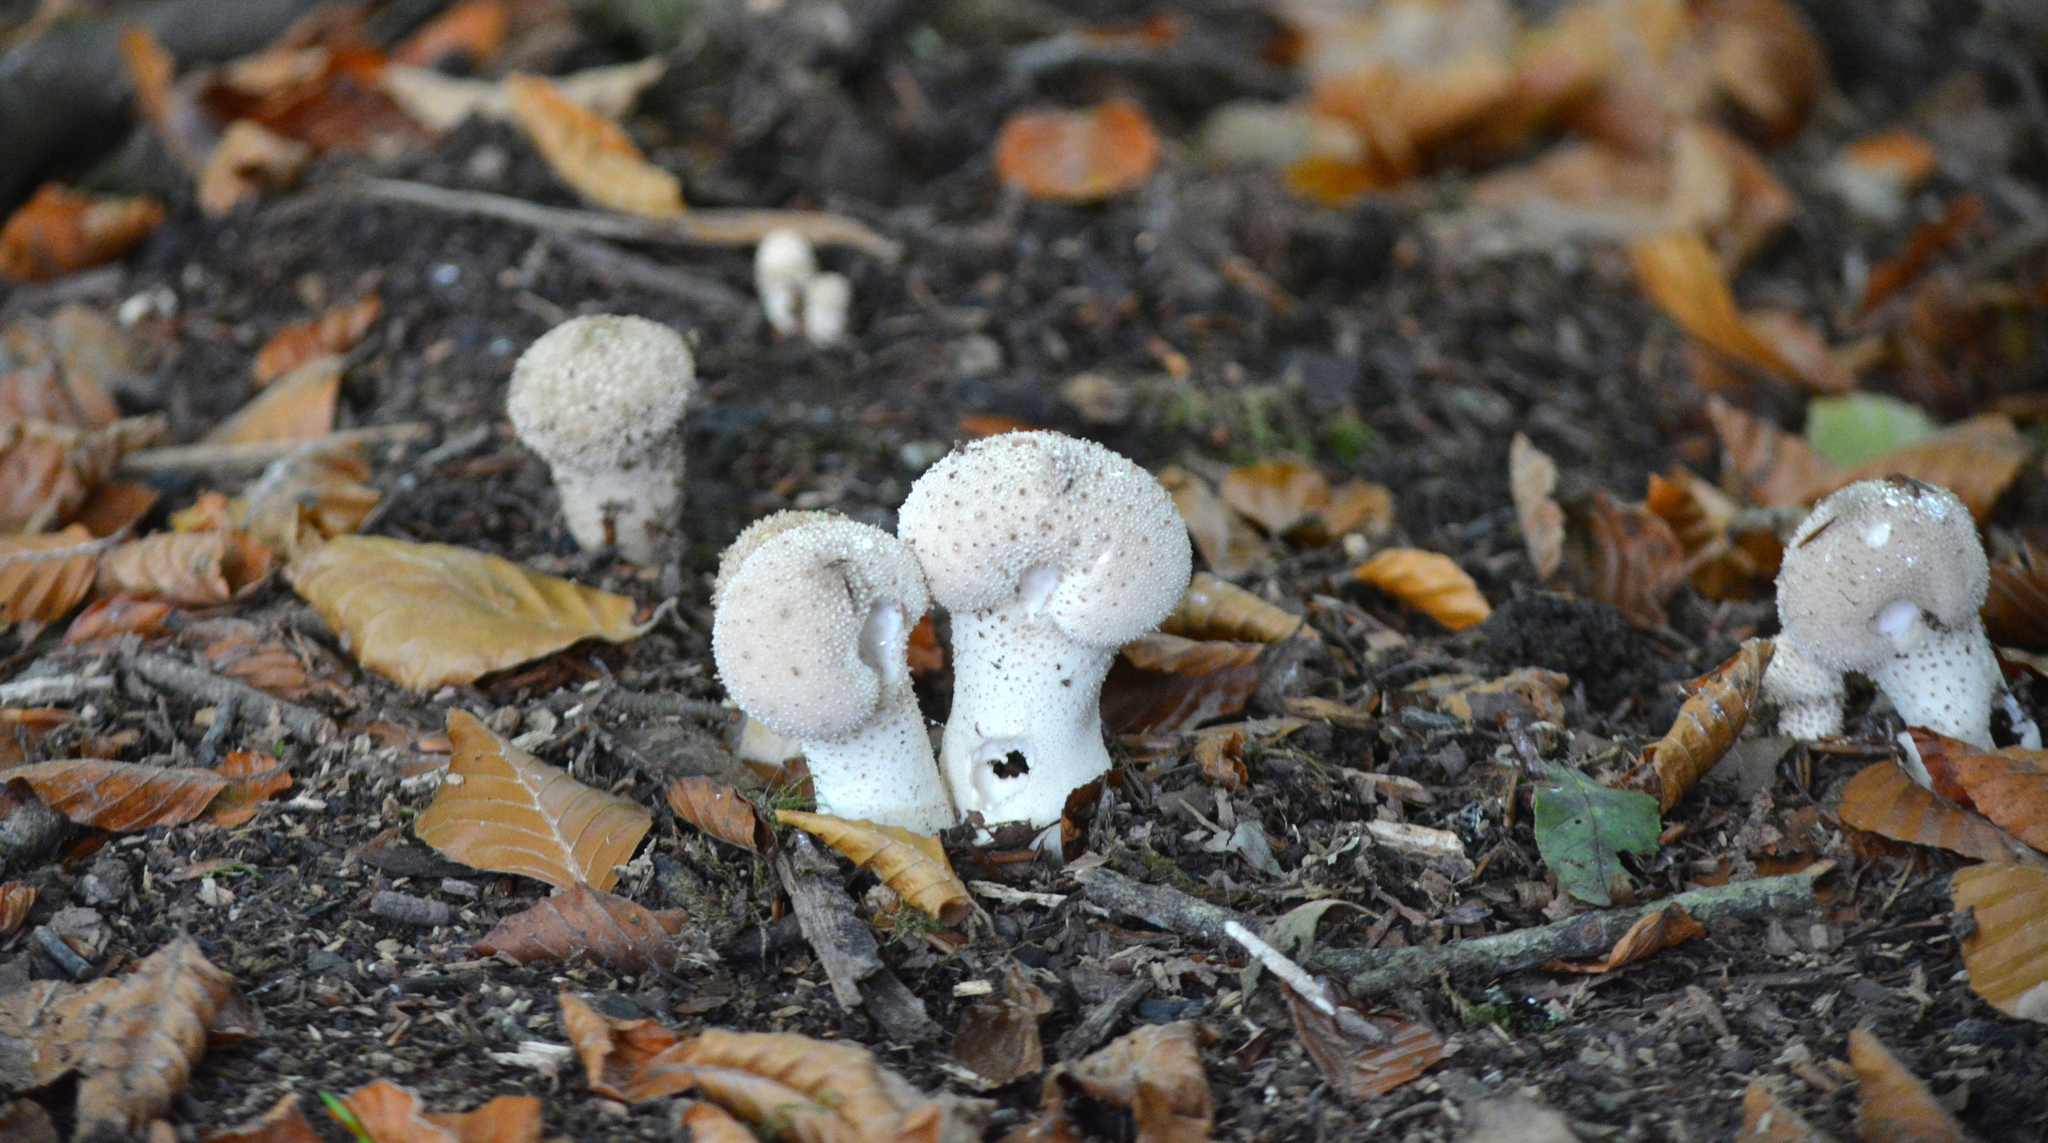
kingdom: Fungi
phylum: Basidiomycota
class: Agaricomycetes
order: Agaricales
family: Lycoperdaceae
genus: Lycoperdon
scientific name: Lycoperdon perlatum
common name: Common puffball
